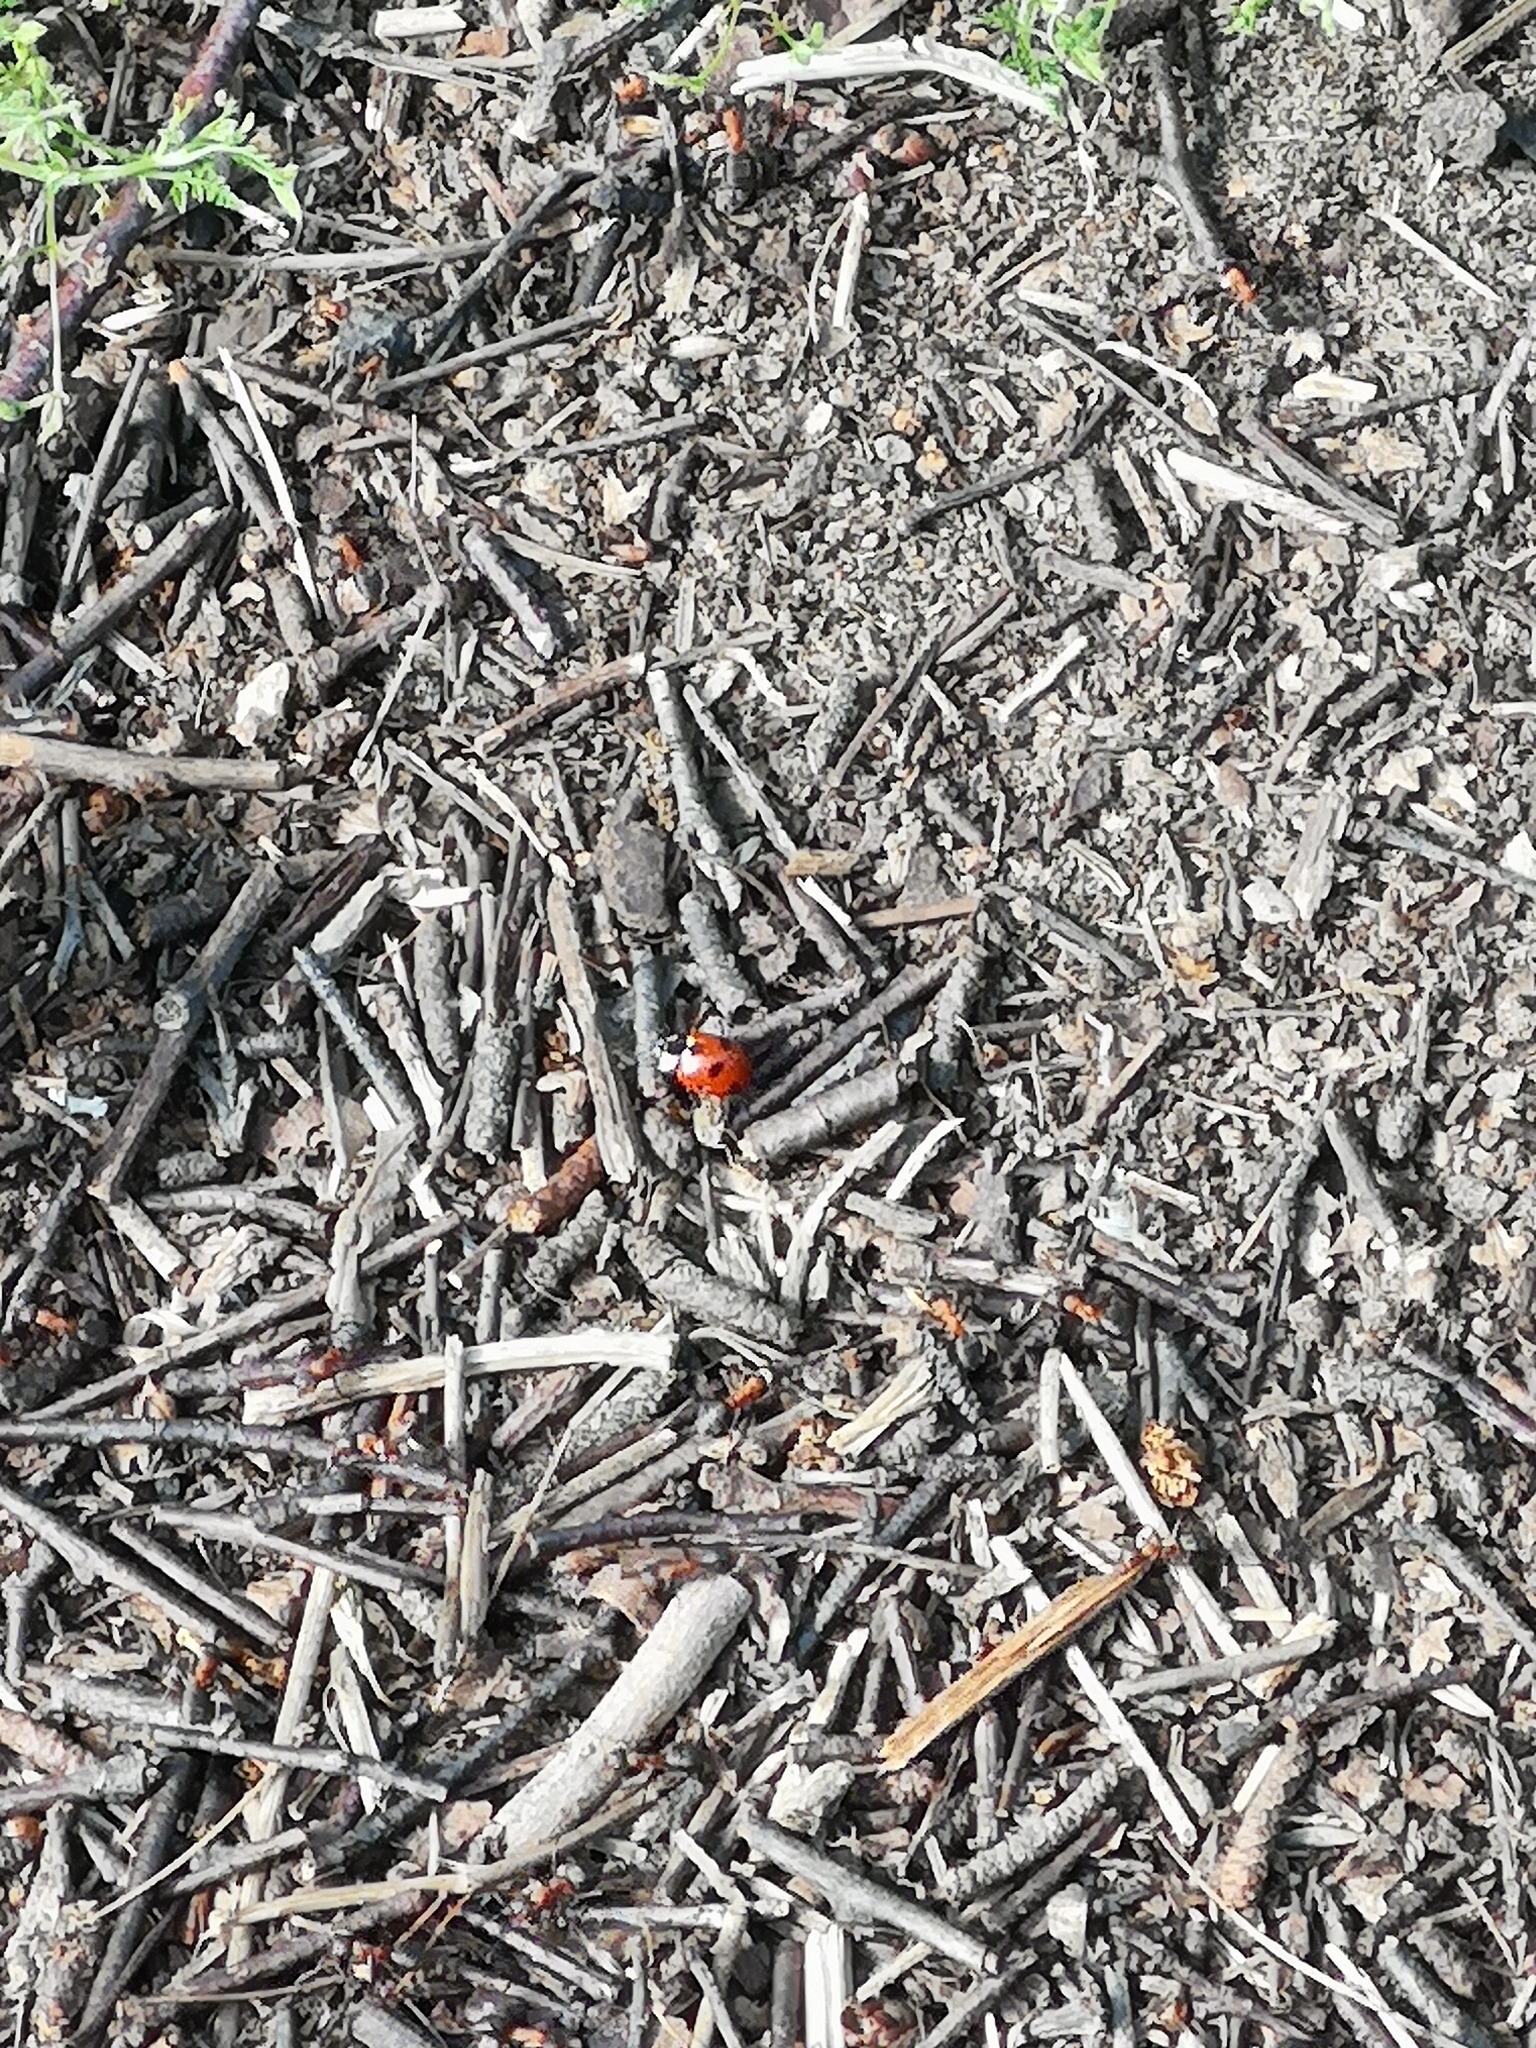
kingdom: Animalia
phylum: Arthropoda
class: Insecta
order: Coleoptera
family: Coccinellidae
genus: Coccinella
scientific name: Coccinella magnifica
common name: Scarce 7-spot ladybird
